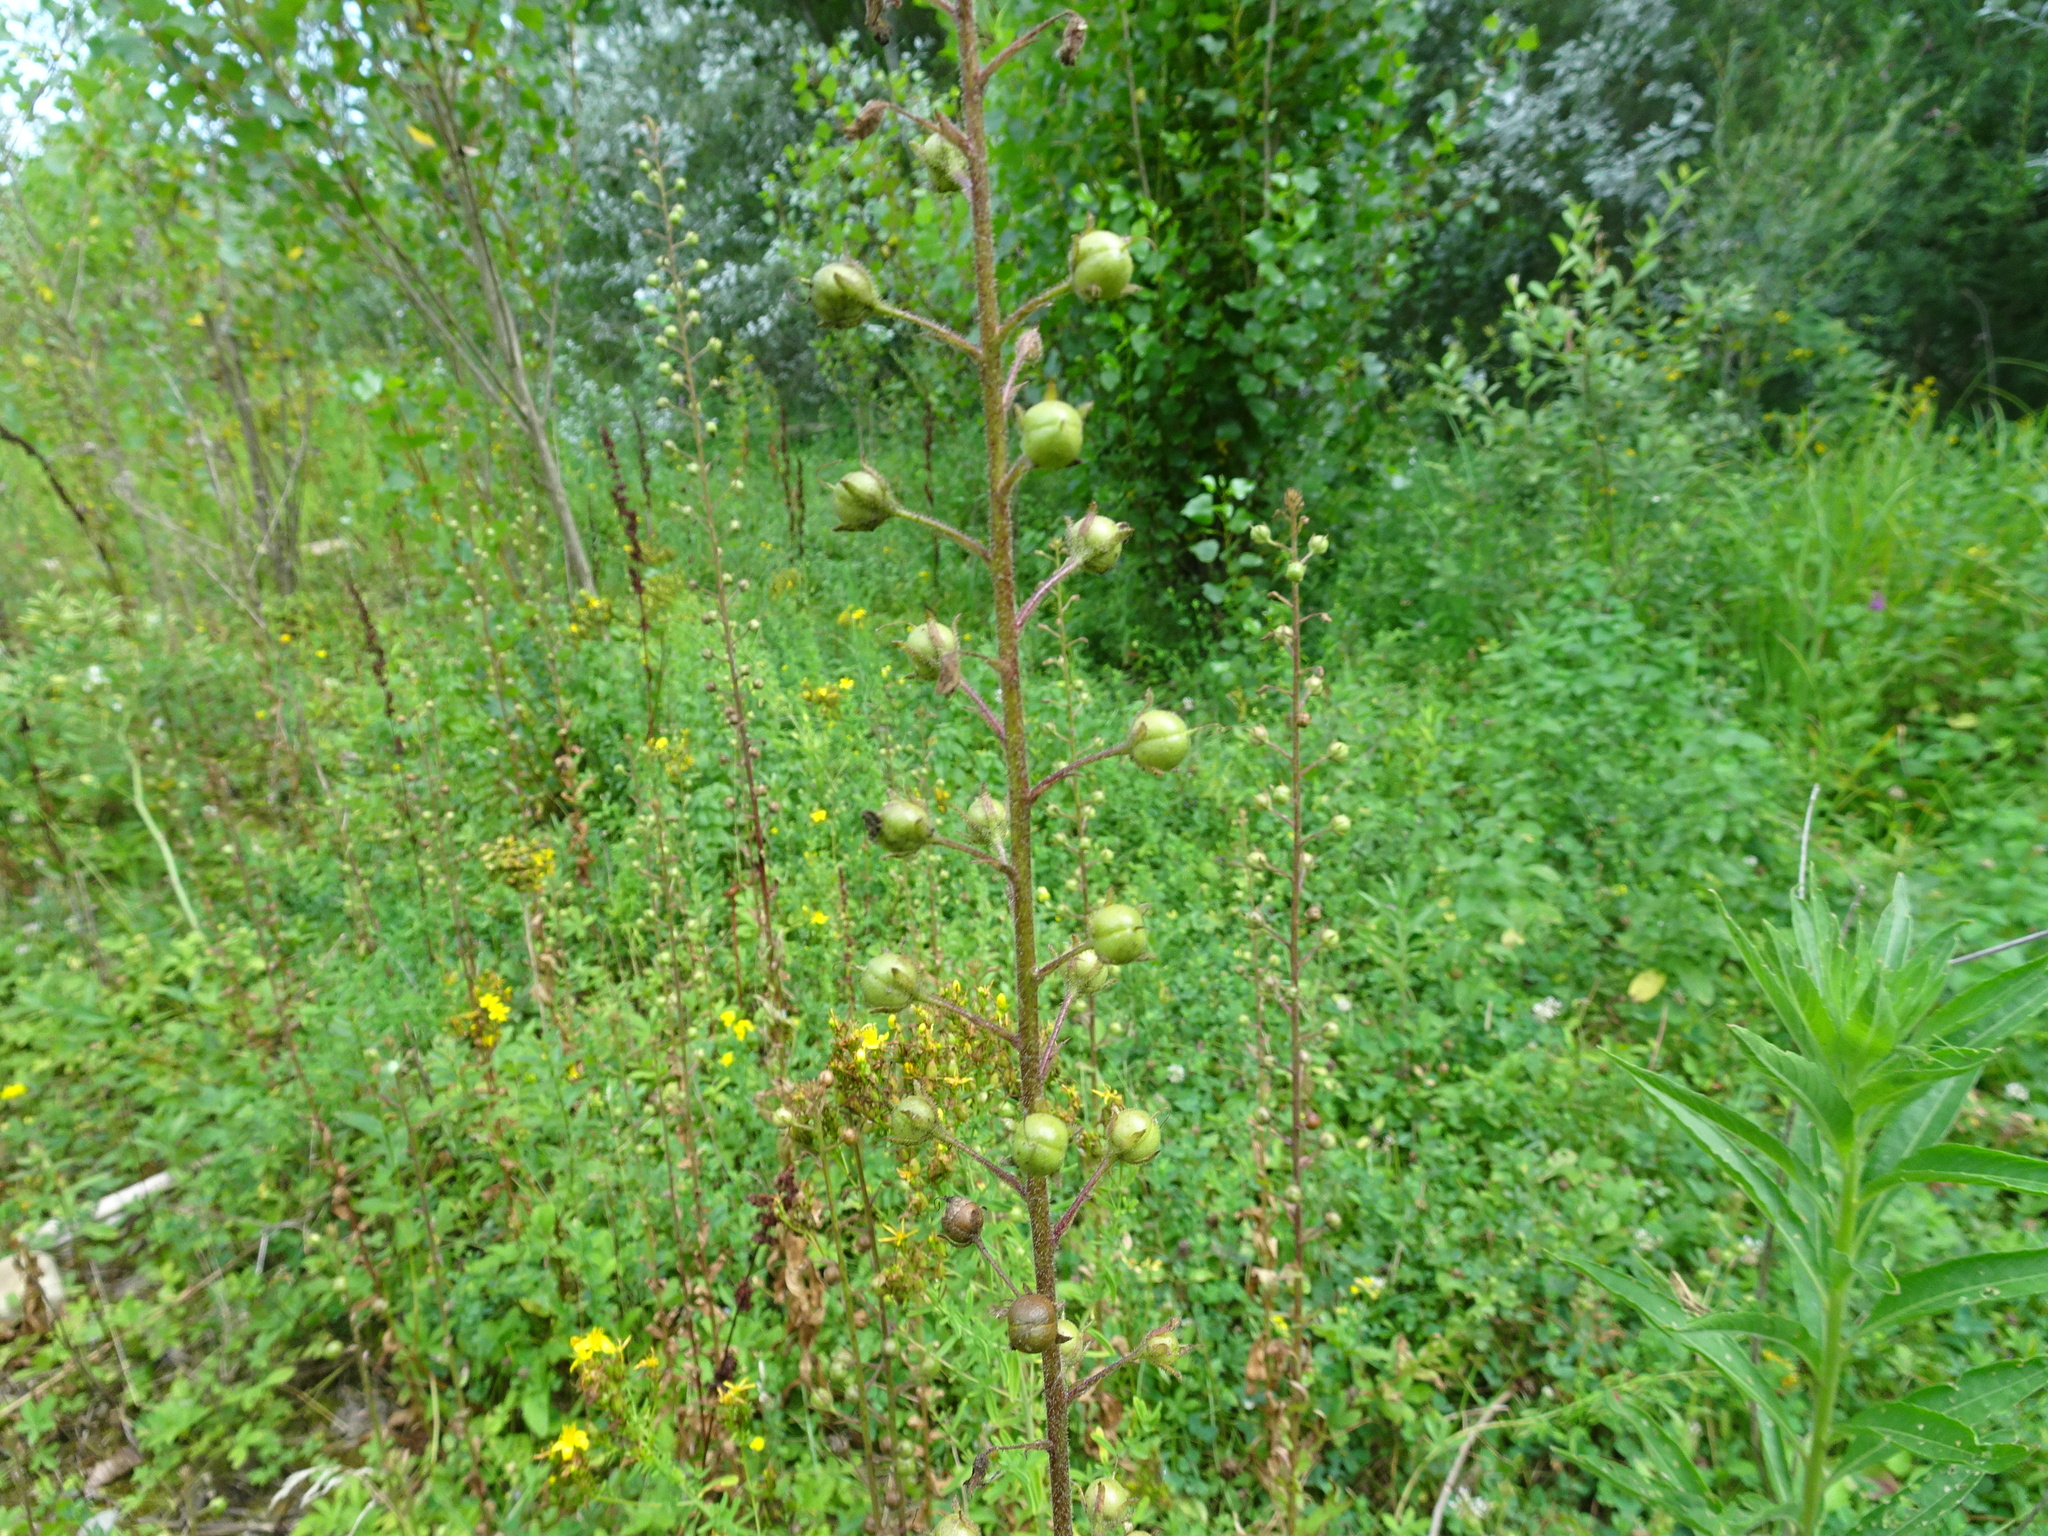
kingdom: Plantae
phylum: Tracheophyta
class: Magnoliopsida
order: Lamiales
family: Scrophulariaceae
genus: Verbascum
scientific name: Verbascum blattaria
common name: Moth mullein
